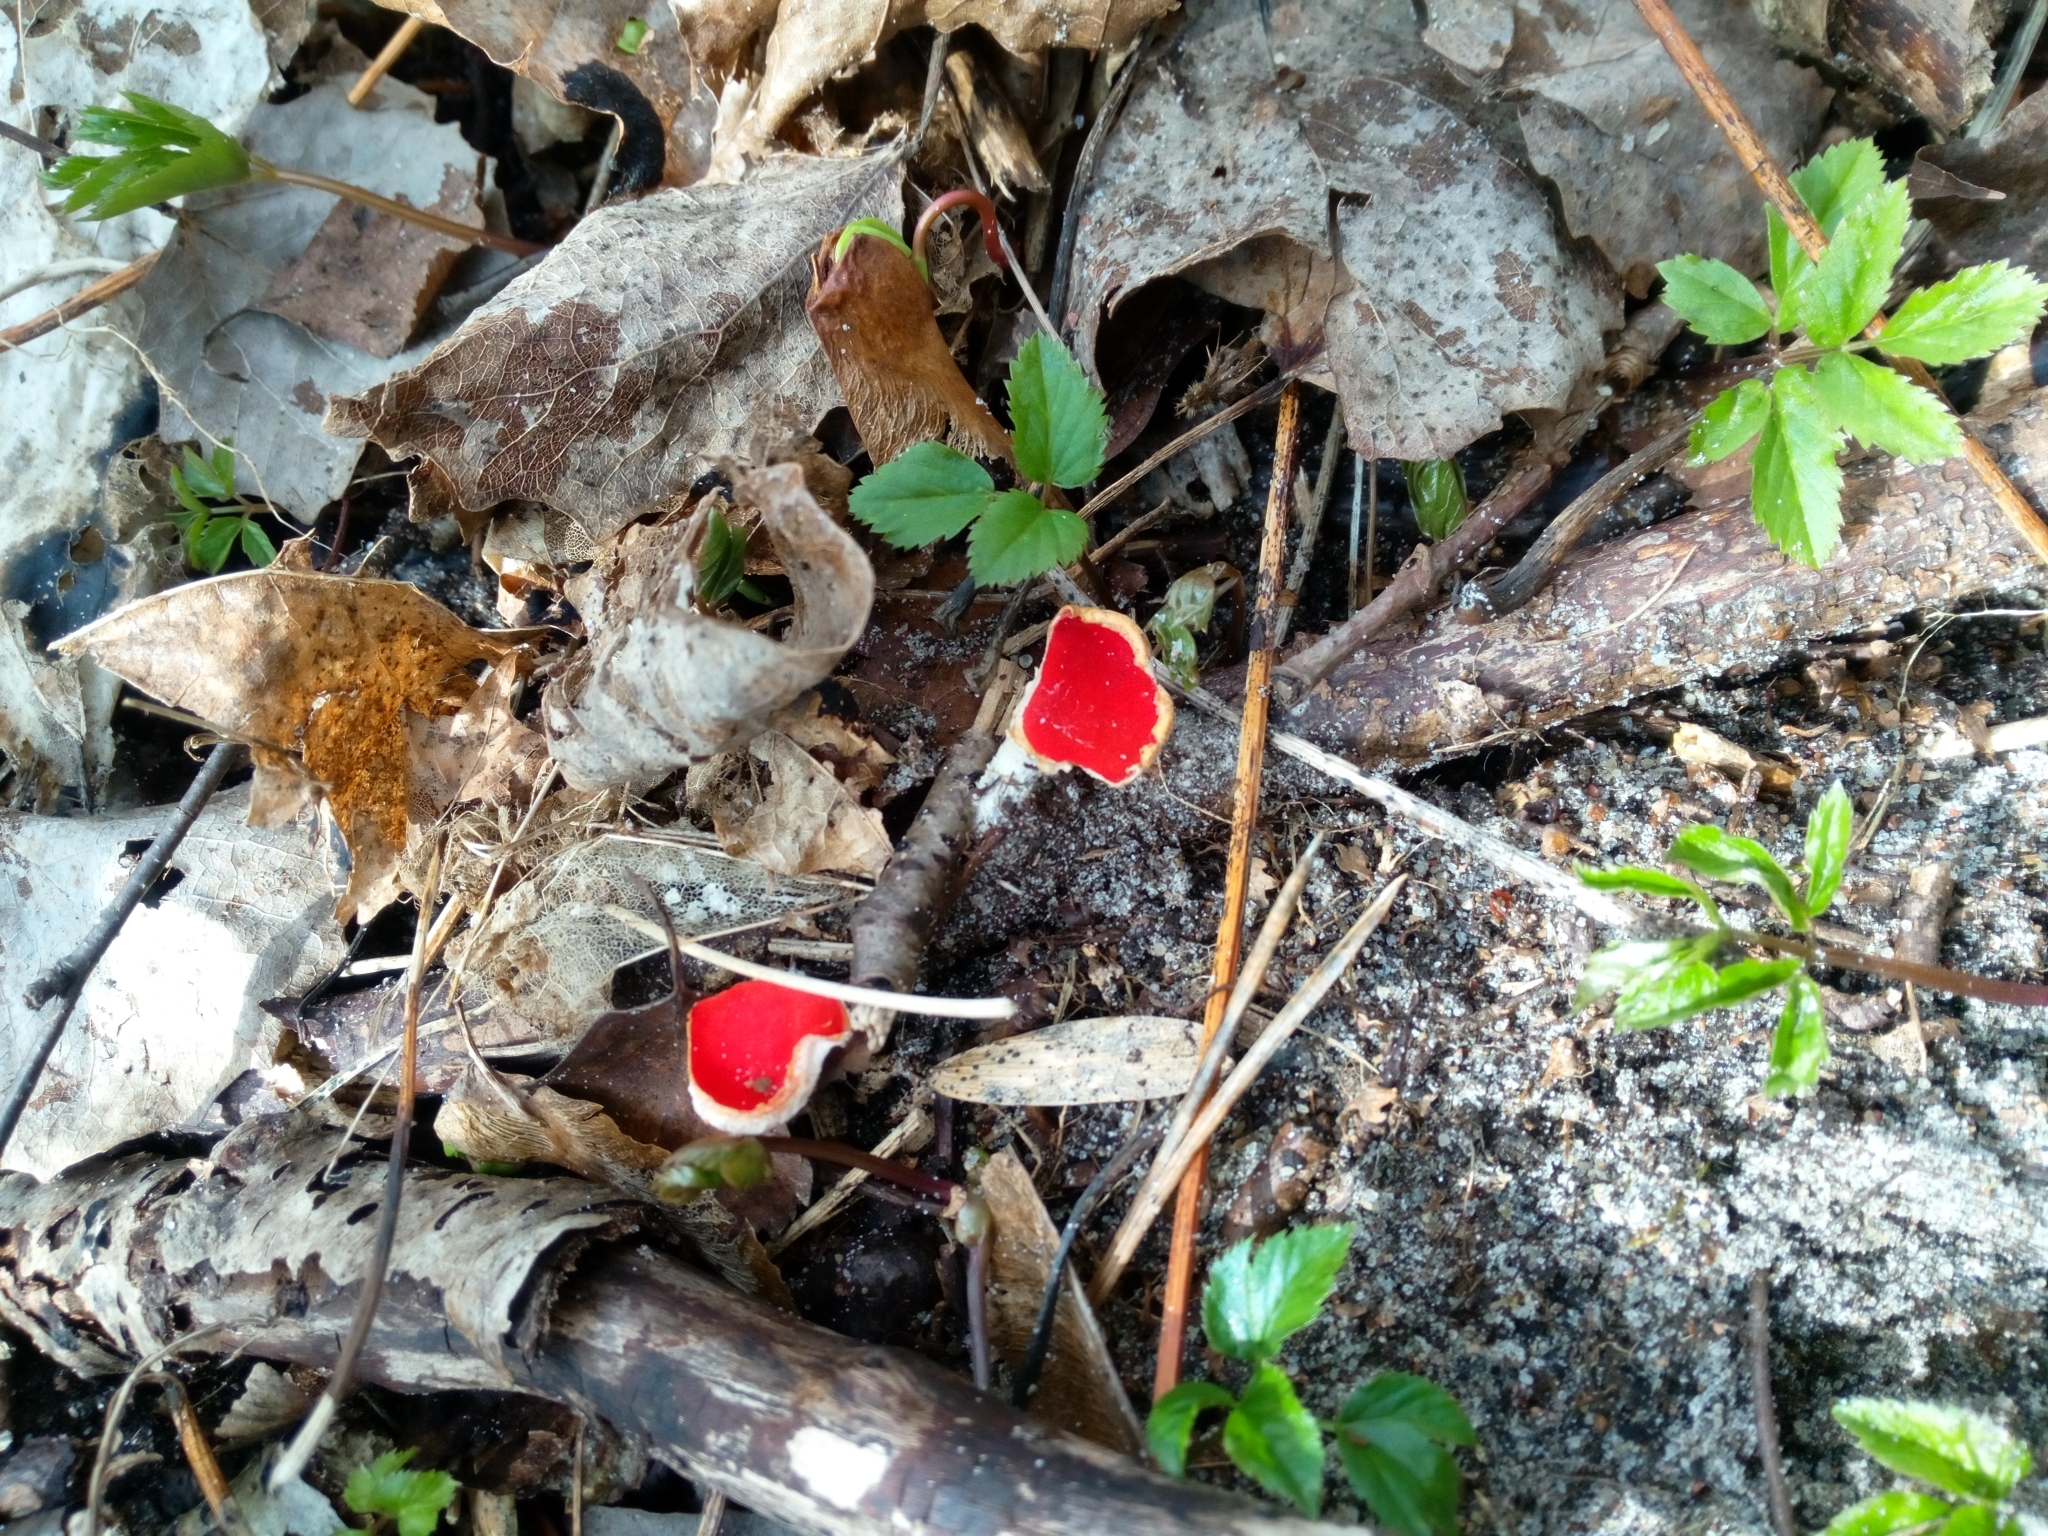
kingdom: Fungi
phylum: Ascomycota
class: Pezizomycetes
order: Pezizales
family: Sarcoscyphaceae
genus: Sarcoscypha
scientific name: Sarcoscypha
